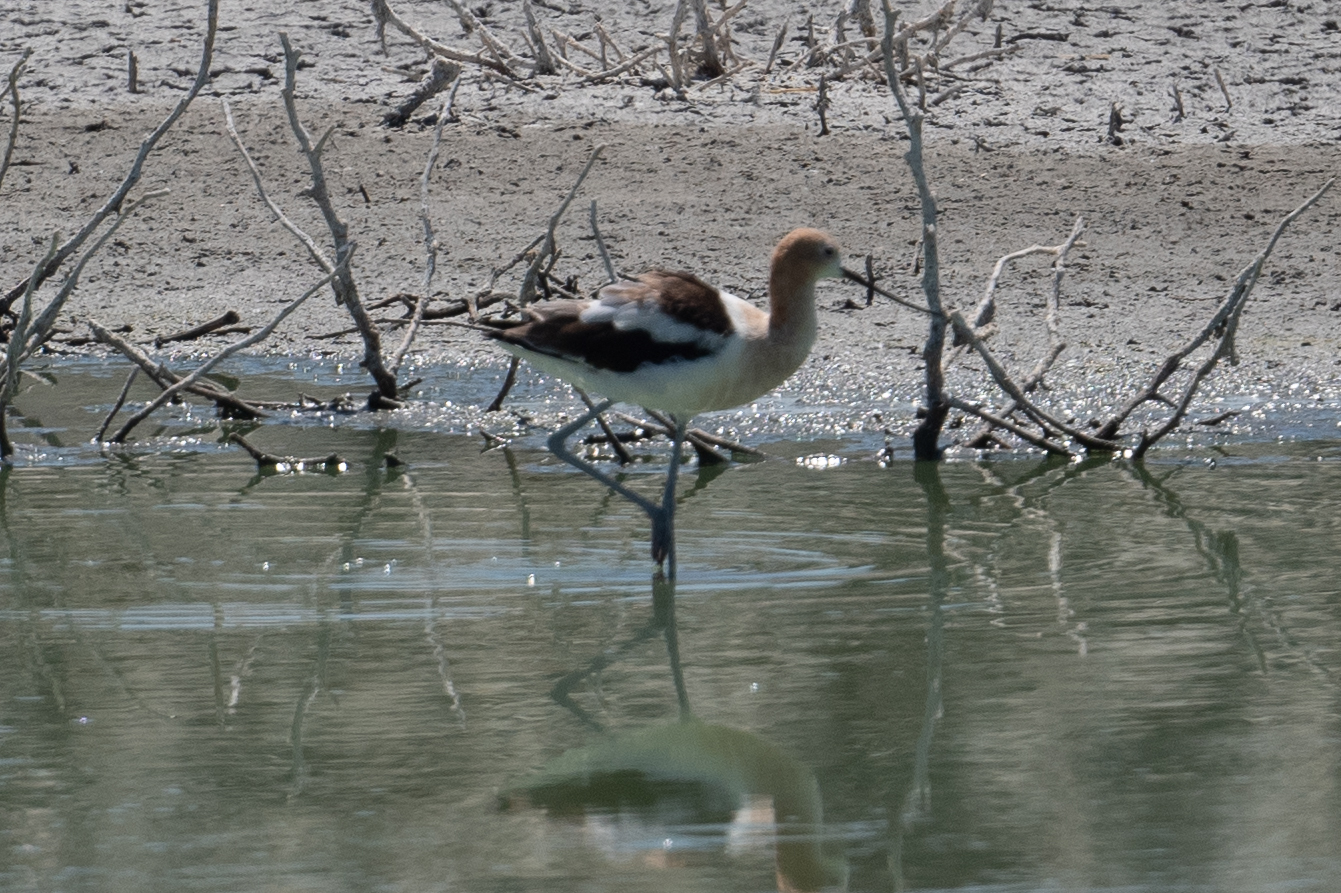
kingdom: Animalia
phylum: Chordata
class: Aves
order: Charadriiformes
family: Recurvirostridae
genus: Recurvirostra
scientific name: Recurvirostra americana
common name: American avocet
